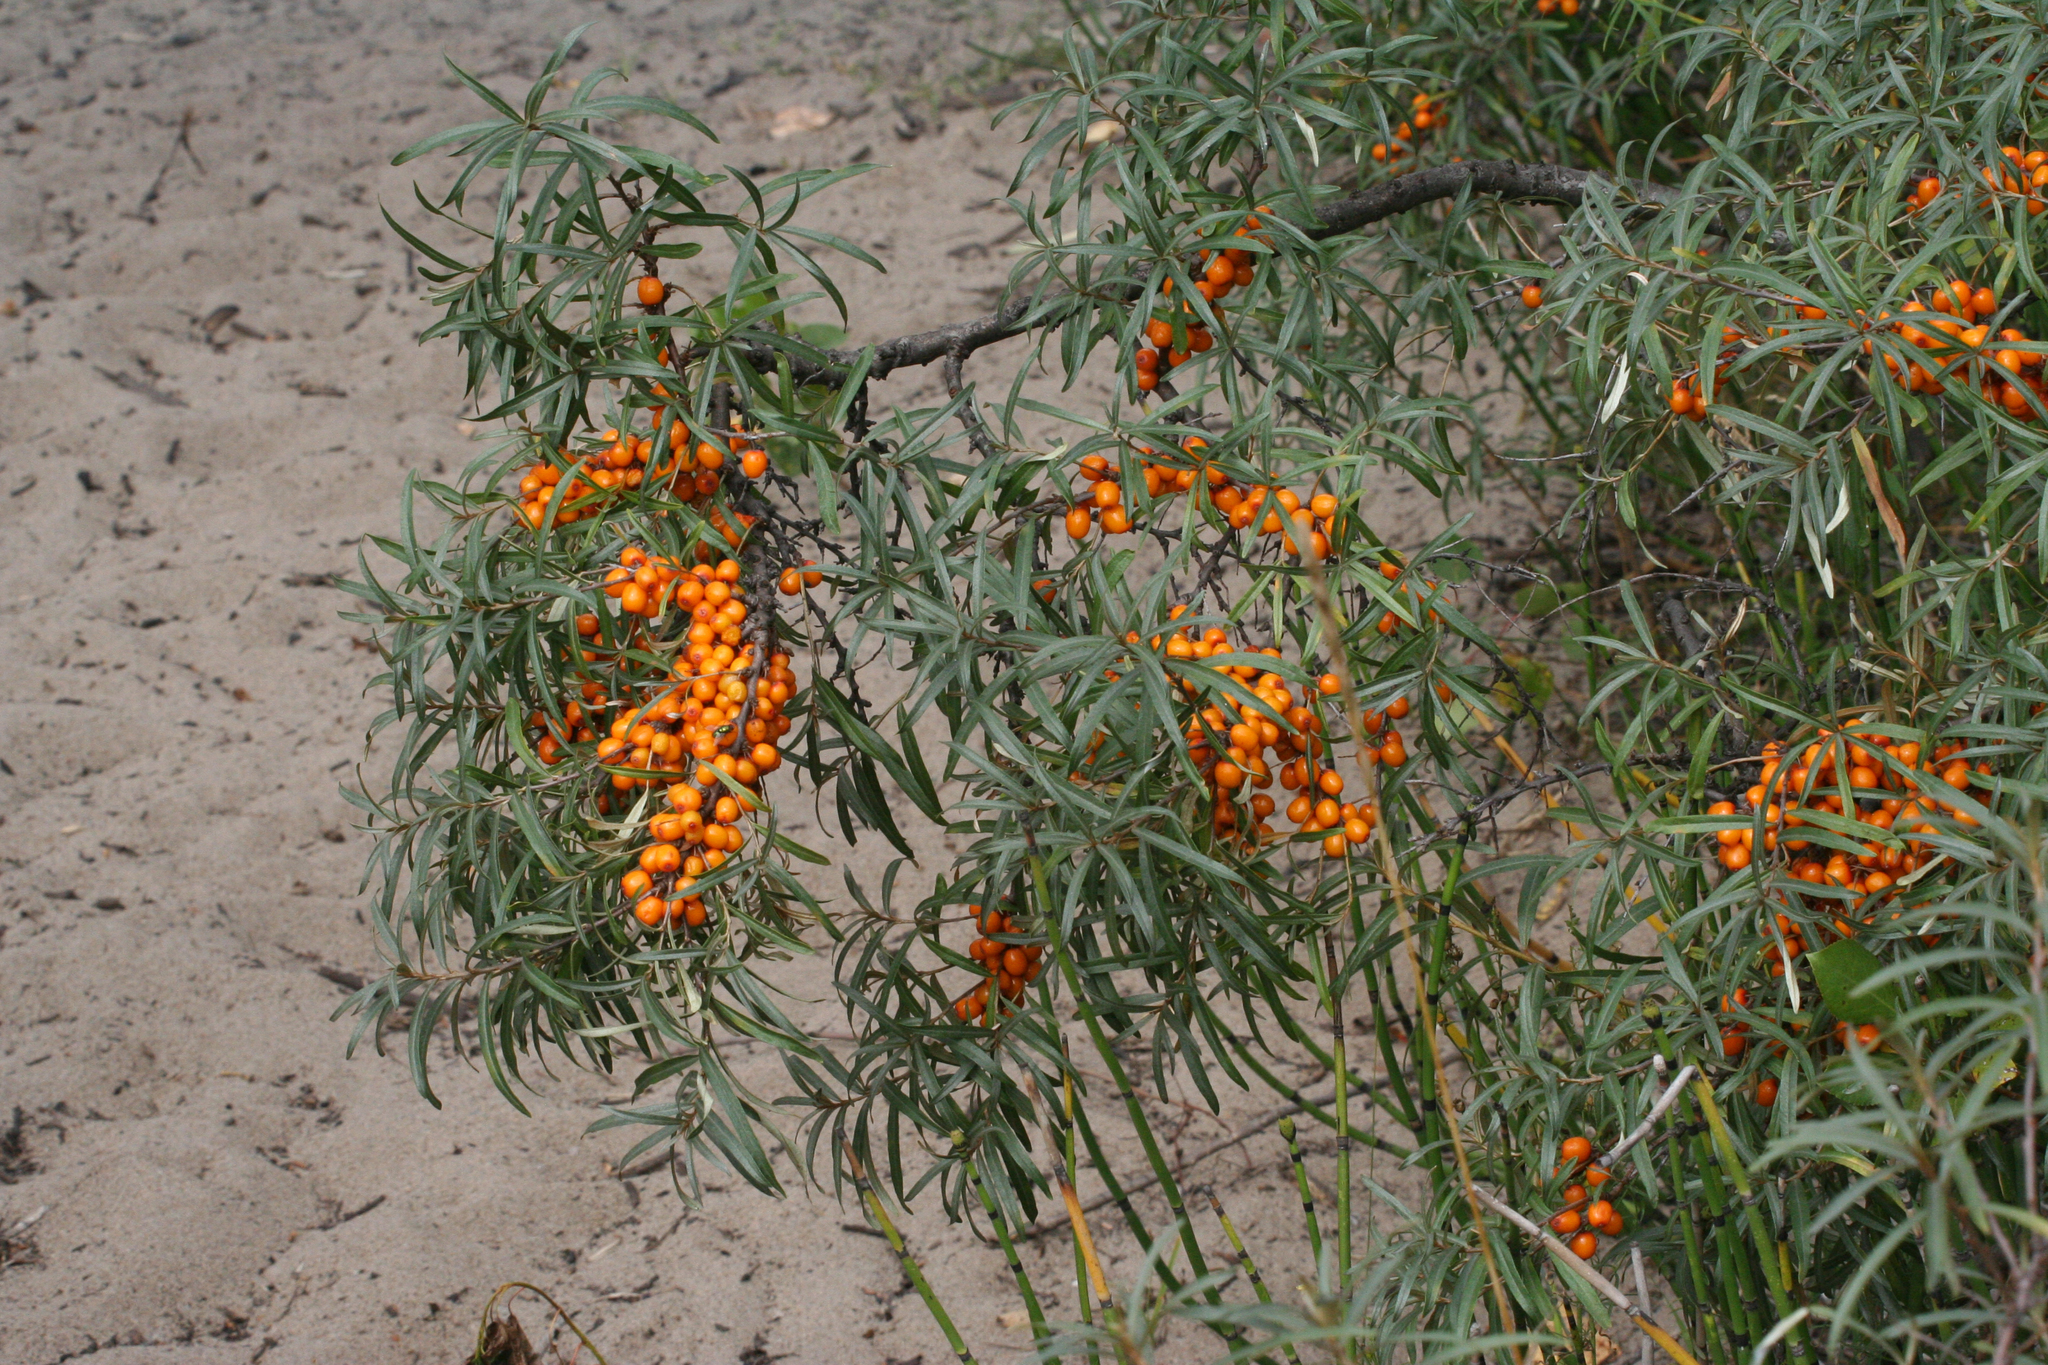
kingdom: Plantae
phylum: Tracheophyta
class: Magnoliopsida
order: Rosales
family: Elaeagnaceae
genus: Hippophae
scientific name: Hippophae rhamnoides
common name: Sea-buckthorn
